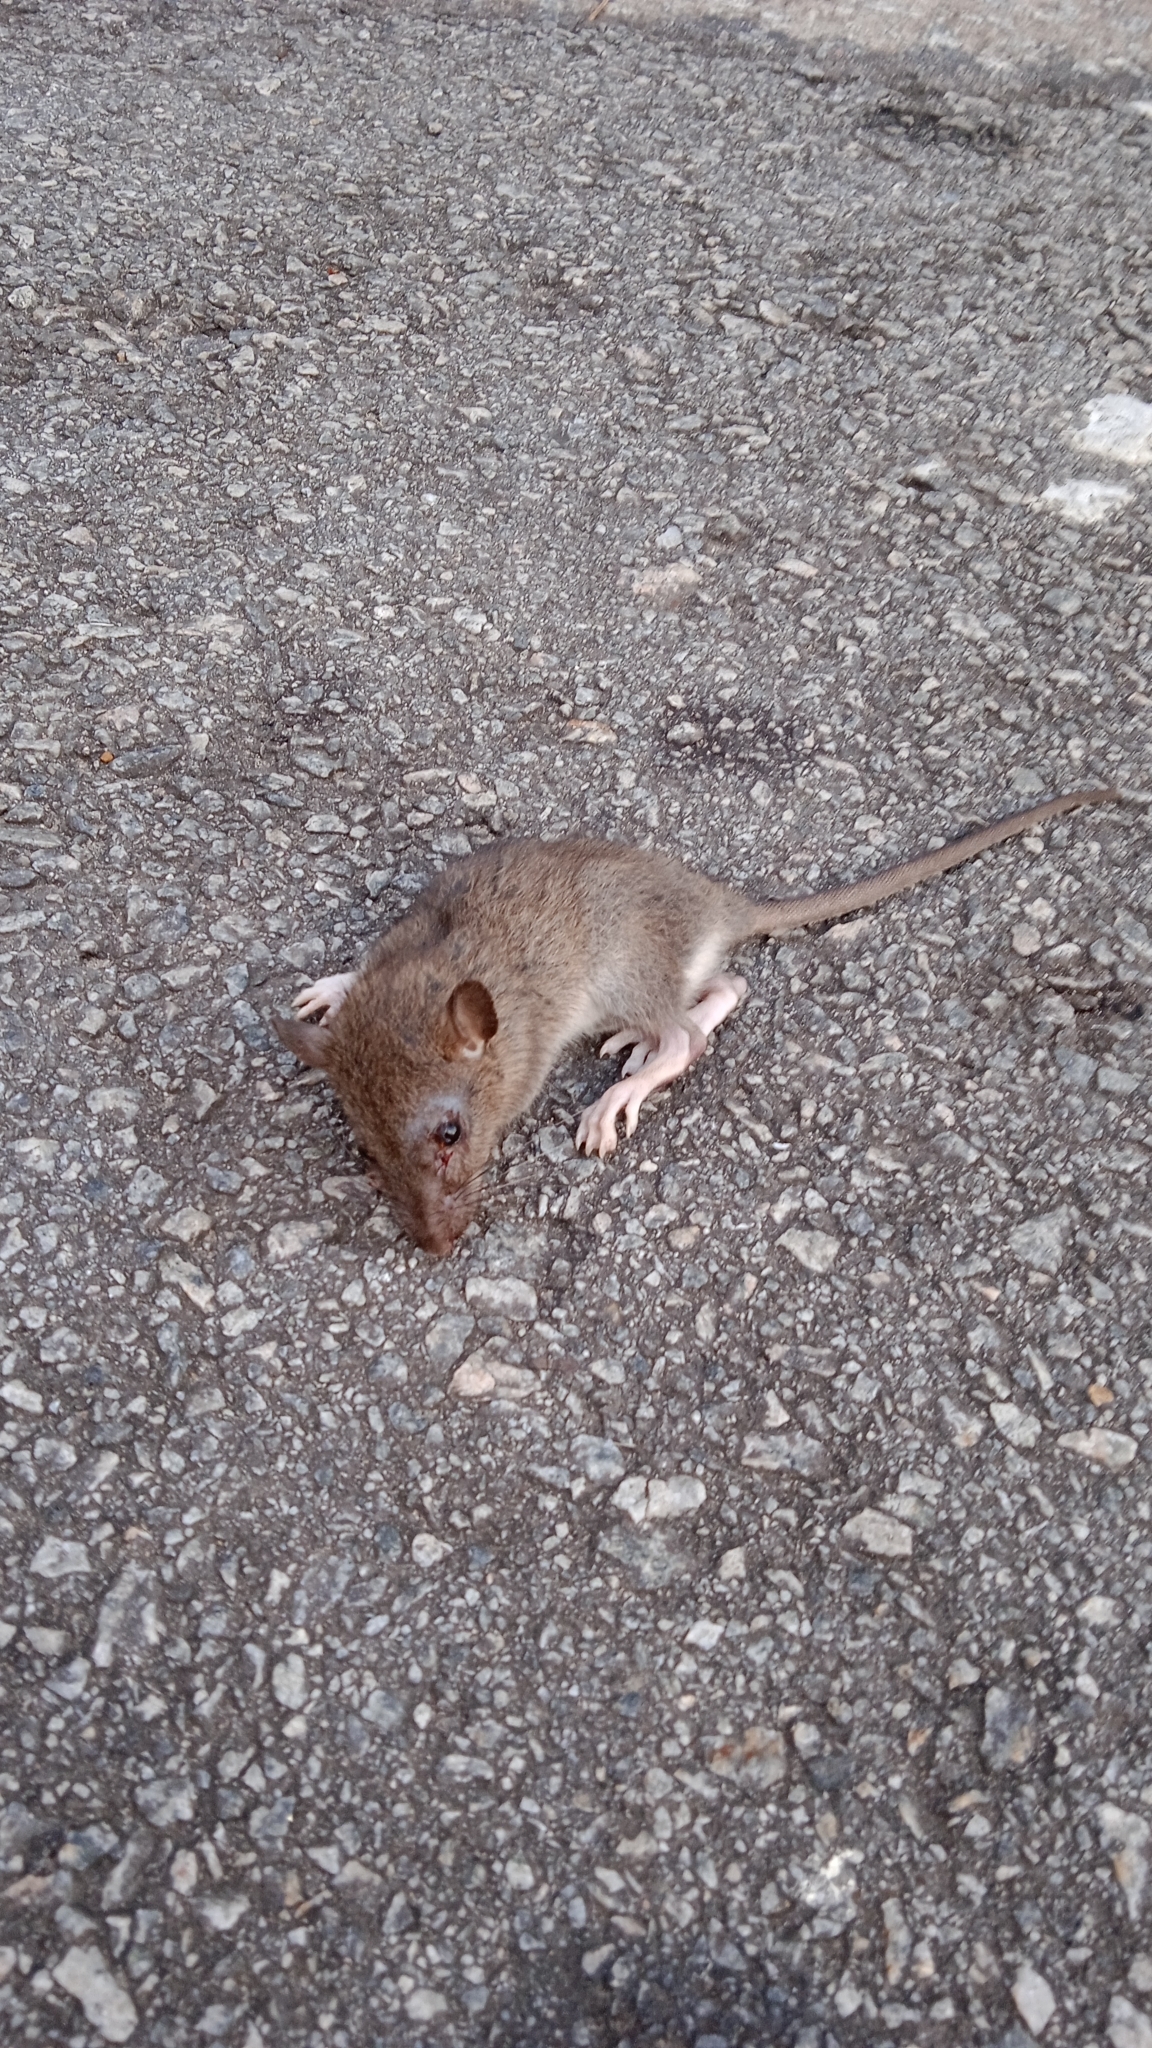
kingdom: Animalia
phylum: Chordata
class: Mammalia
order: Rodentia
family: Muridae
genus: Rattus
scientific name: Rattus norvegicus
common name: Brown rat
